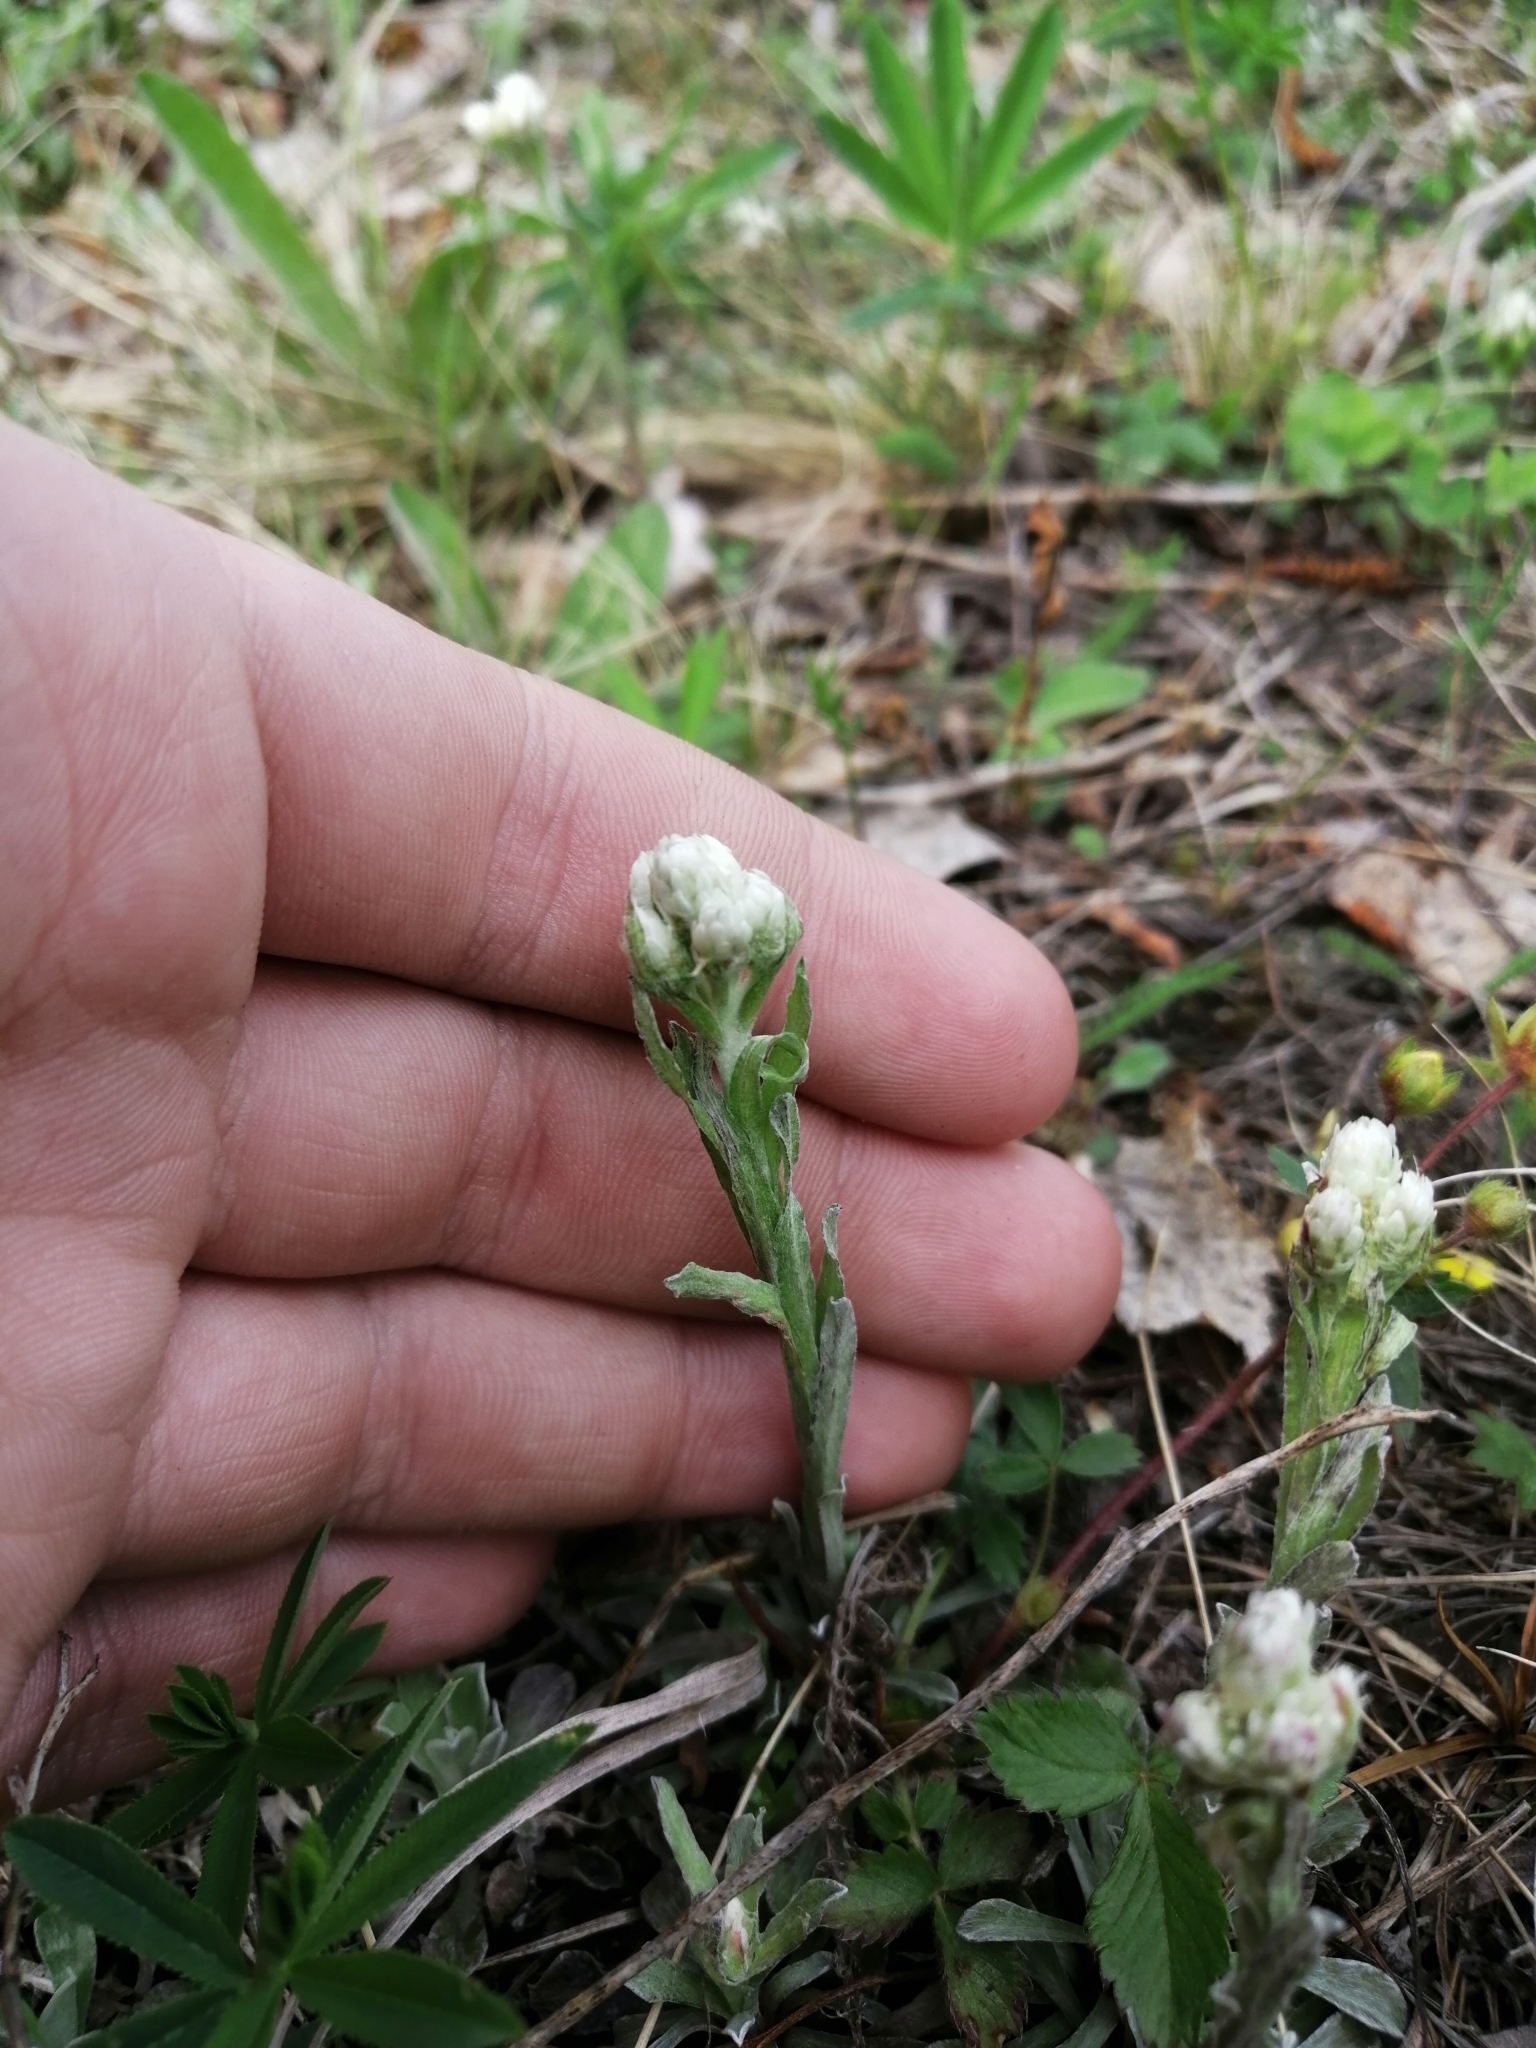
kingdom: Plantae
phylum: Tracheophyta
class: Magnoliopsida
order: Asterales
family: Asteraceae
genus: Antennaria
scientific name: Antennaria dioica
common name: Mountain everlasting
